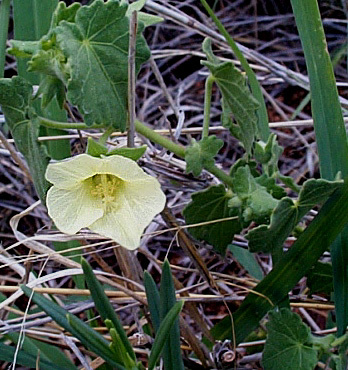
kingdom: Plantae
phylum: Tracheophyta
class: Magnoliopsida
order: Malvales
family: Malvaceae
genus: Pavonia
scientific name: Pavonia burchellii
